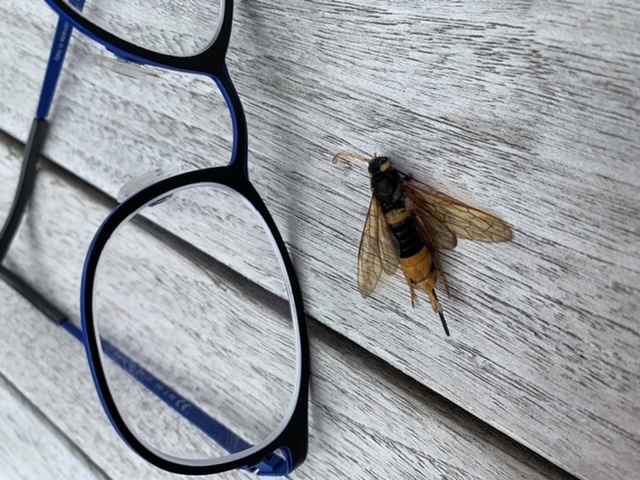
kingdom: Animalia
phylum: Arthropoda
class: Insecta
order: Hymenoptera
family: Siricidae
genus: Urocerus
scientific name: Urocerus gigas
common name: Giant woodwasp
